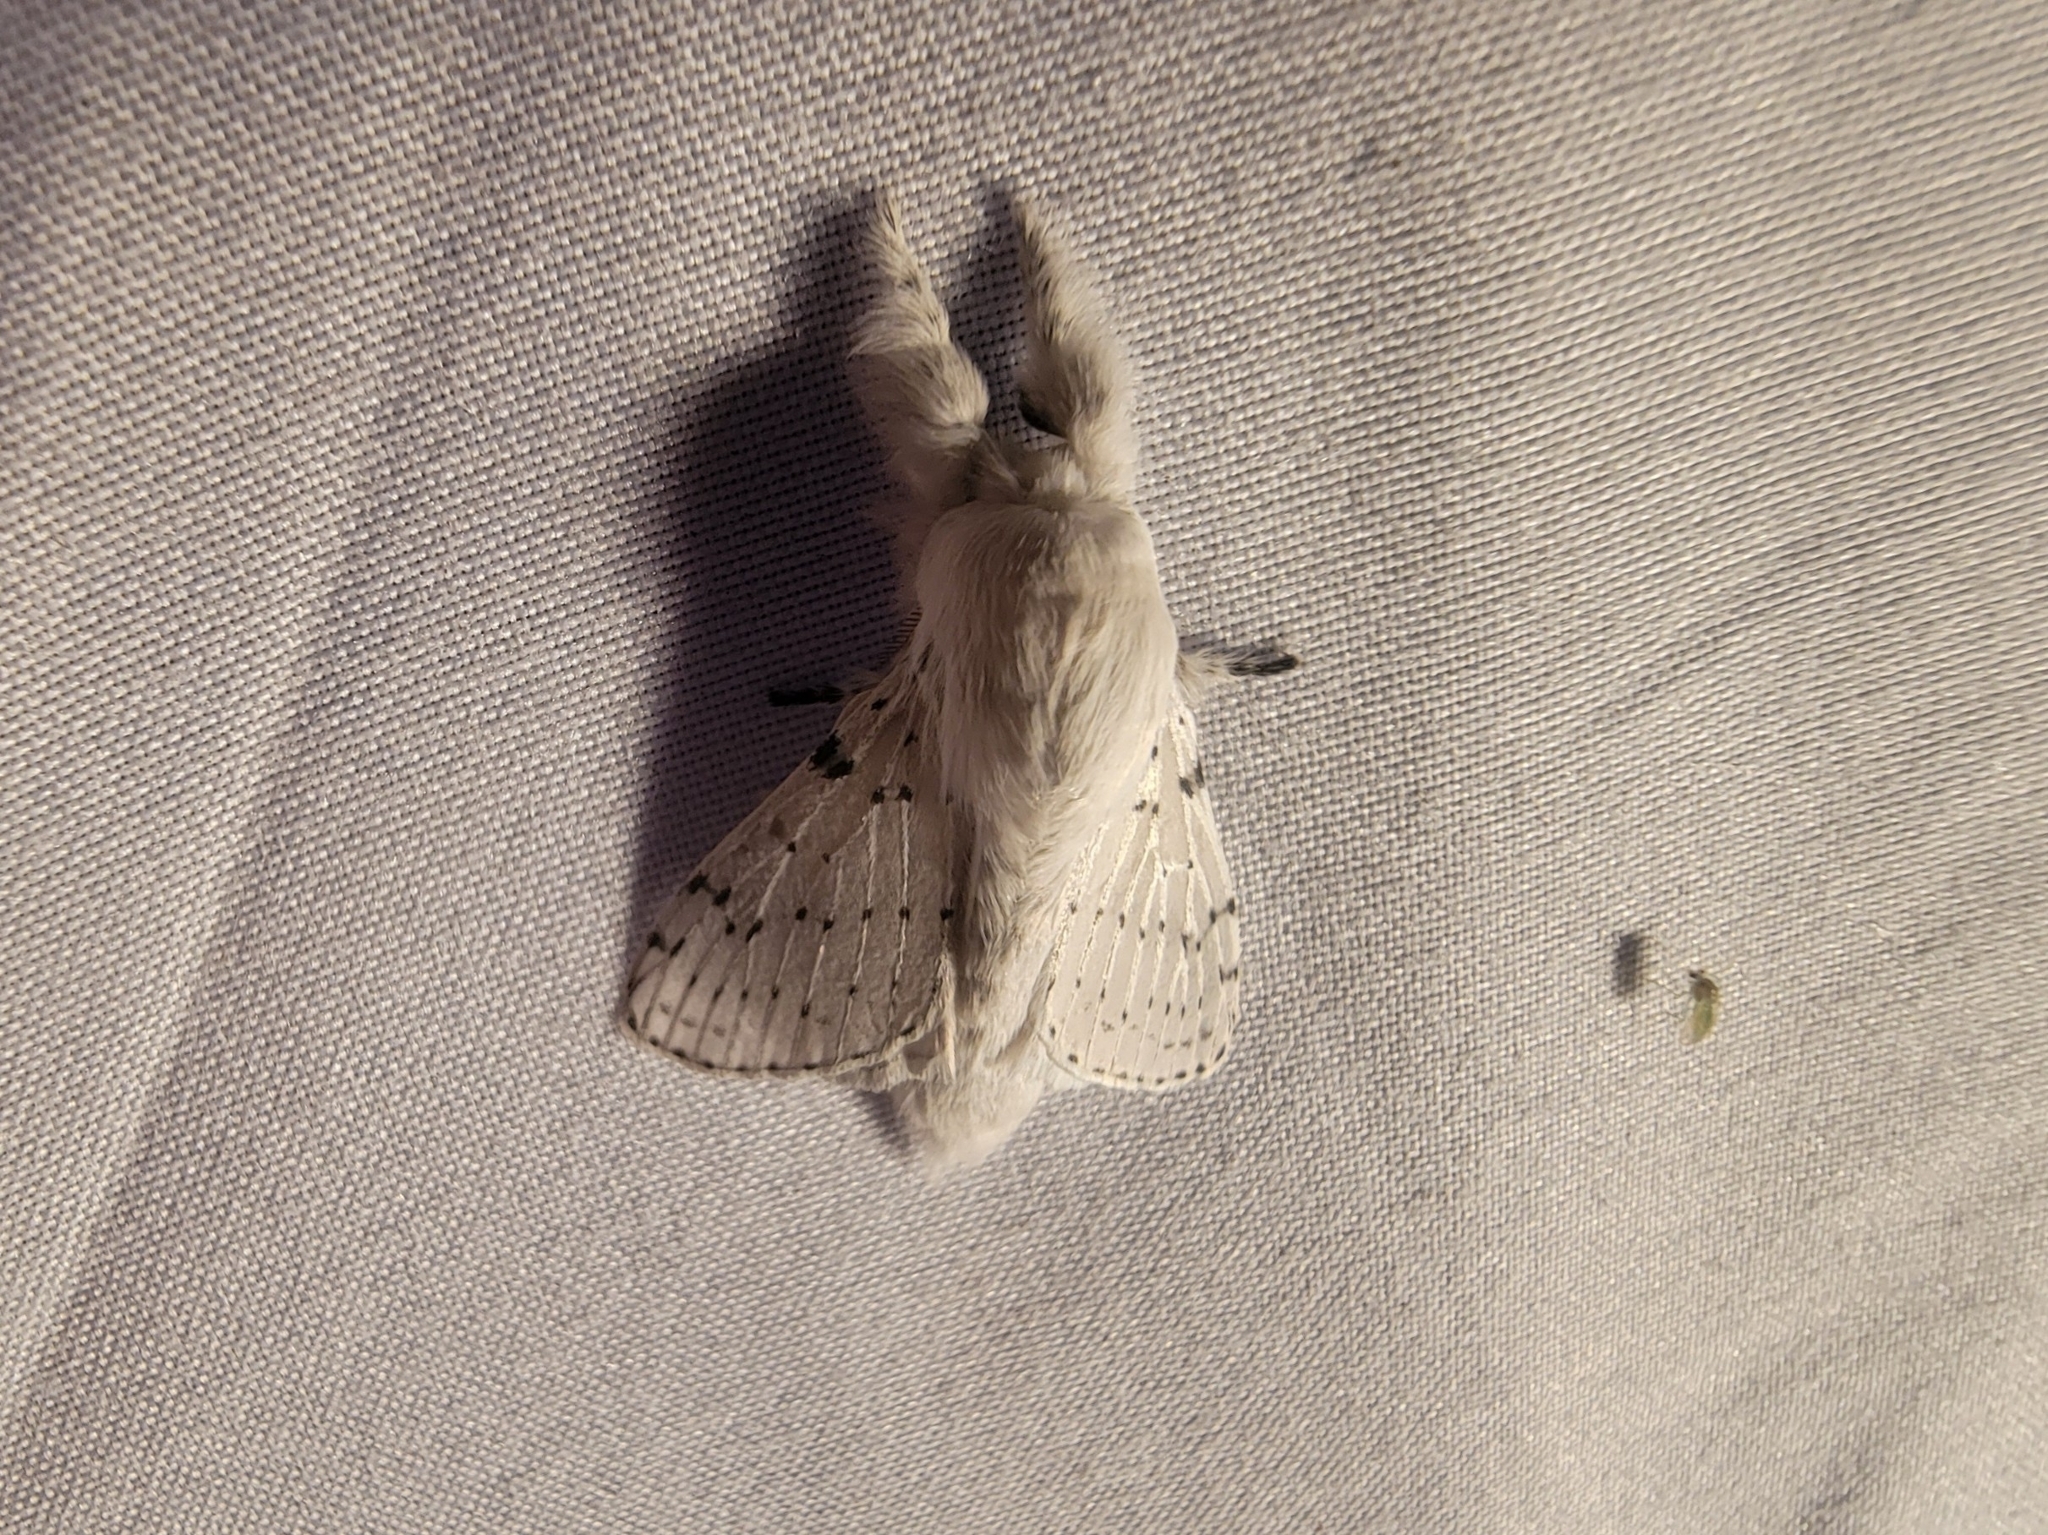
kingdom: Animalia
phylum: Arthropoda
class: Insecta
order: Lepidoptera
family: Lasiocampidae
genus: Artace
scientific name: Artace cribrarius
